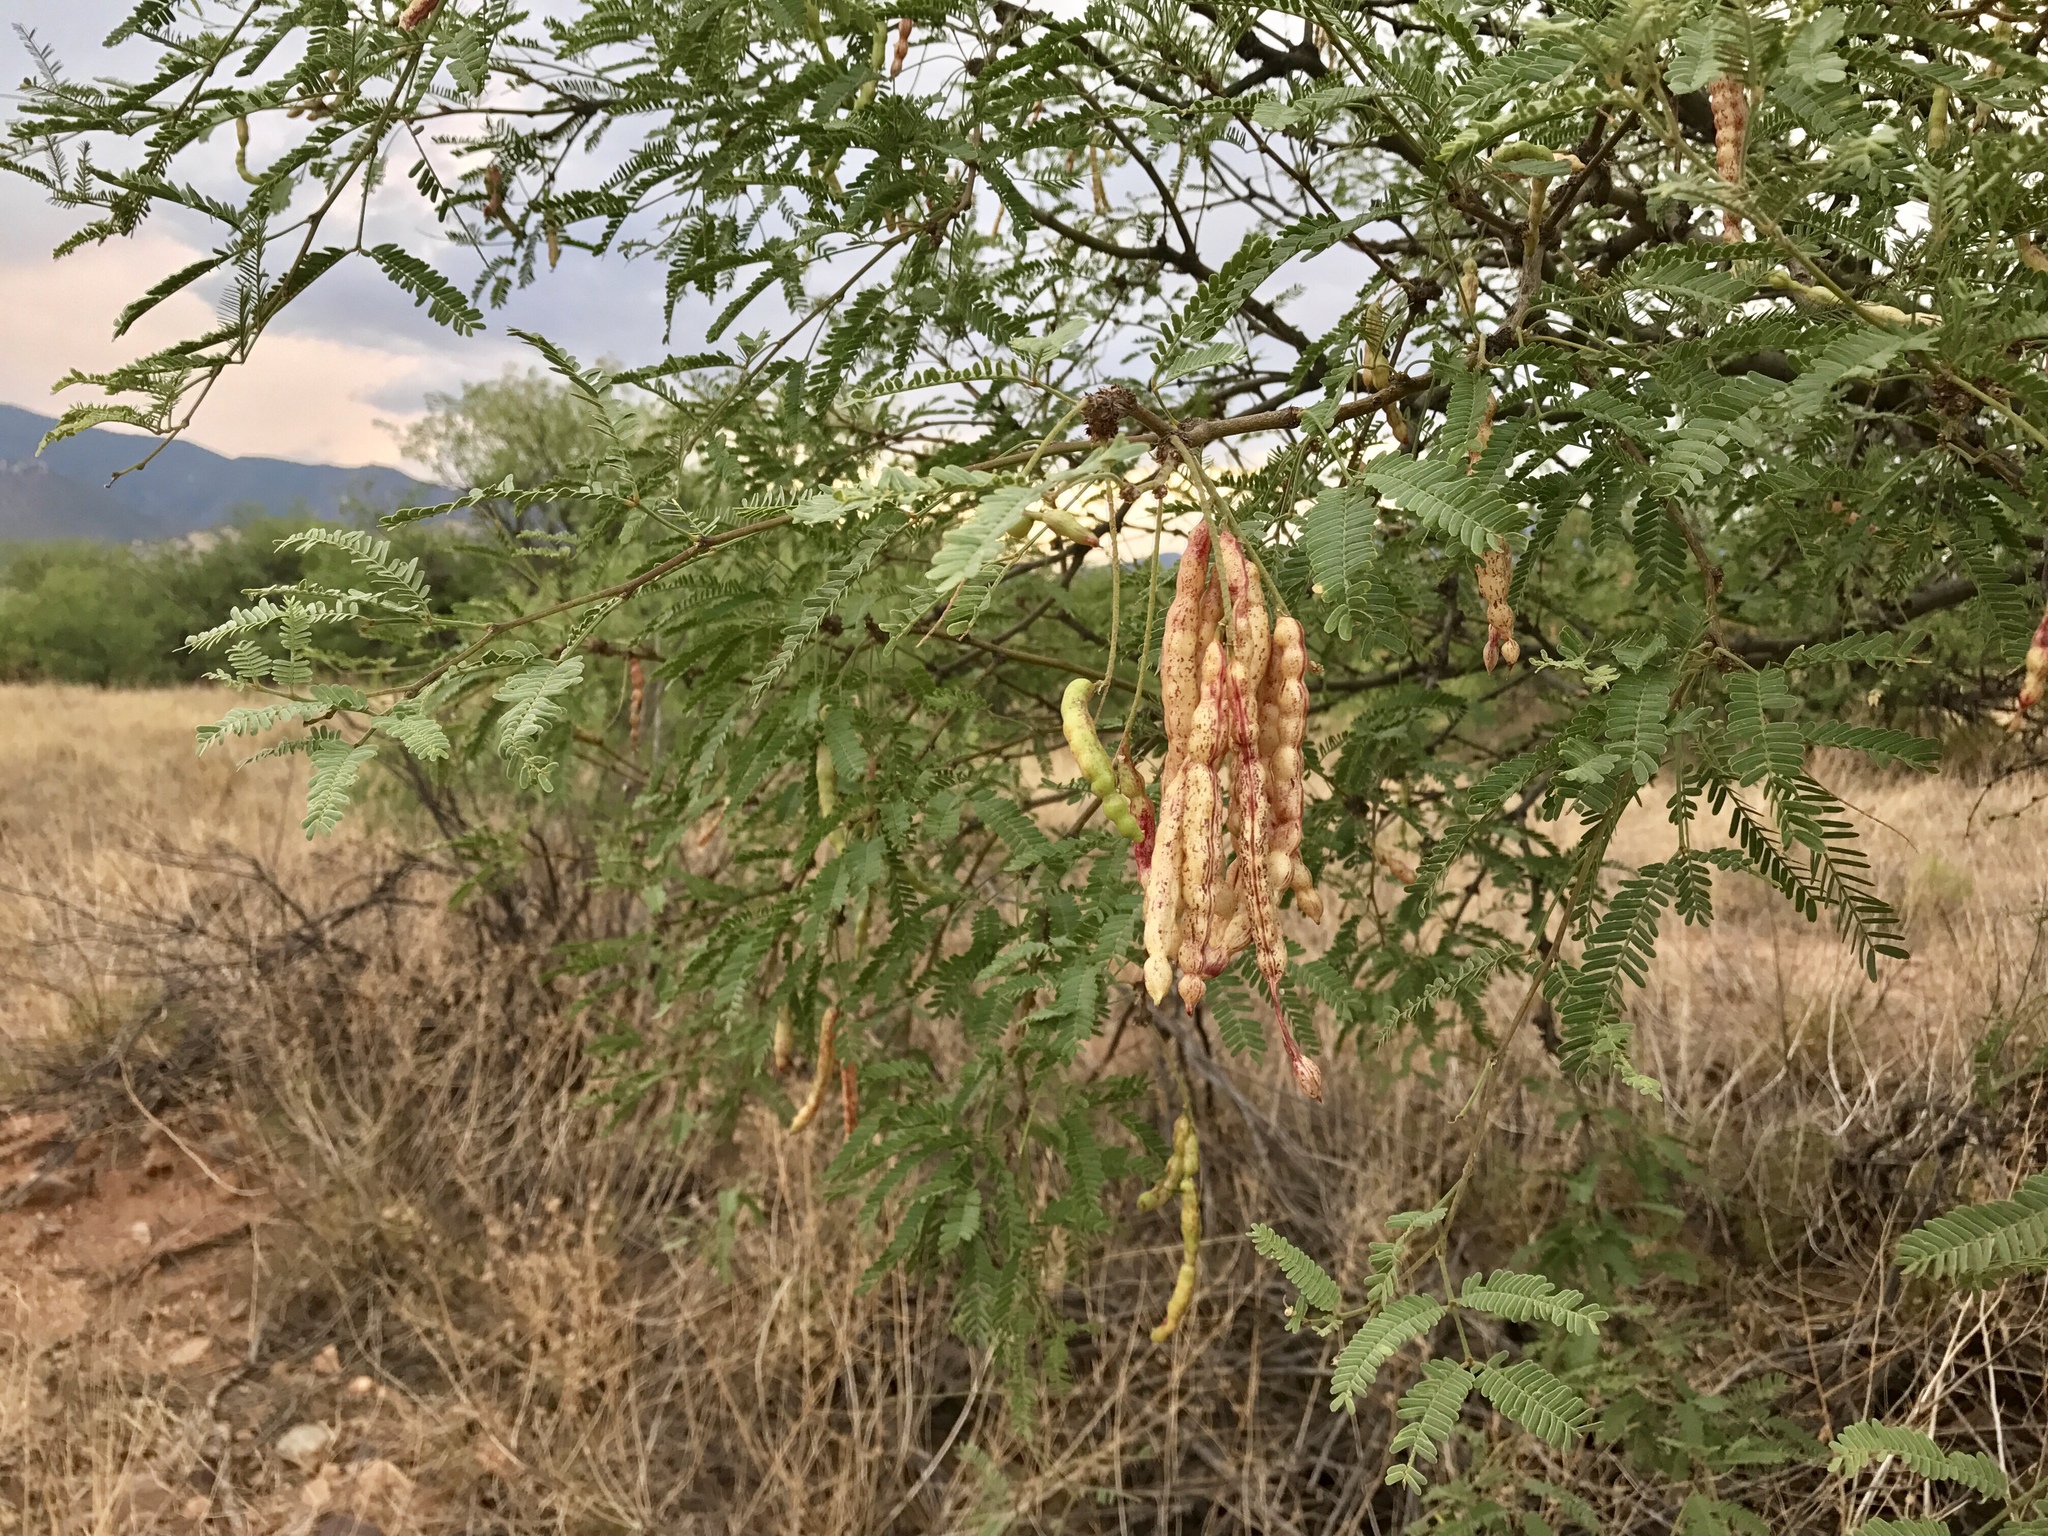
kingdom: Plantae
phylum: Tracheophyta
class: Magnoliopsida
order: Fabales
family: Fabaceae
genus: Prosopis
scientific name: Prosopis glandulosa
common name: Honey mesquite
